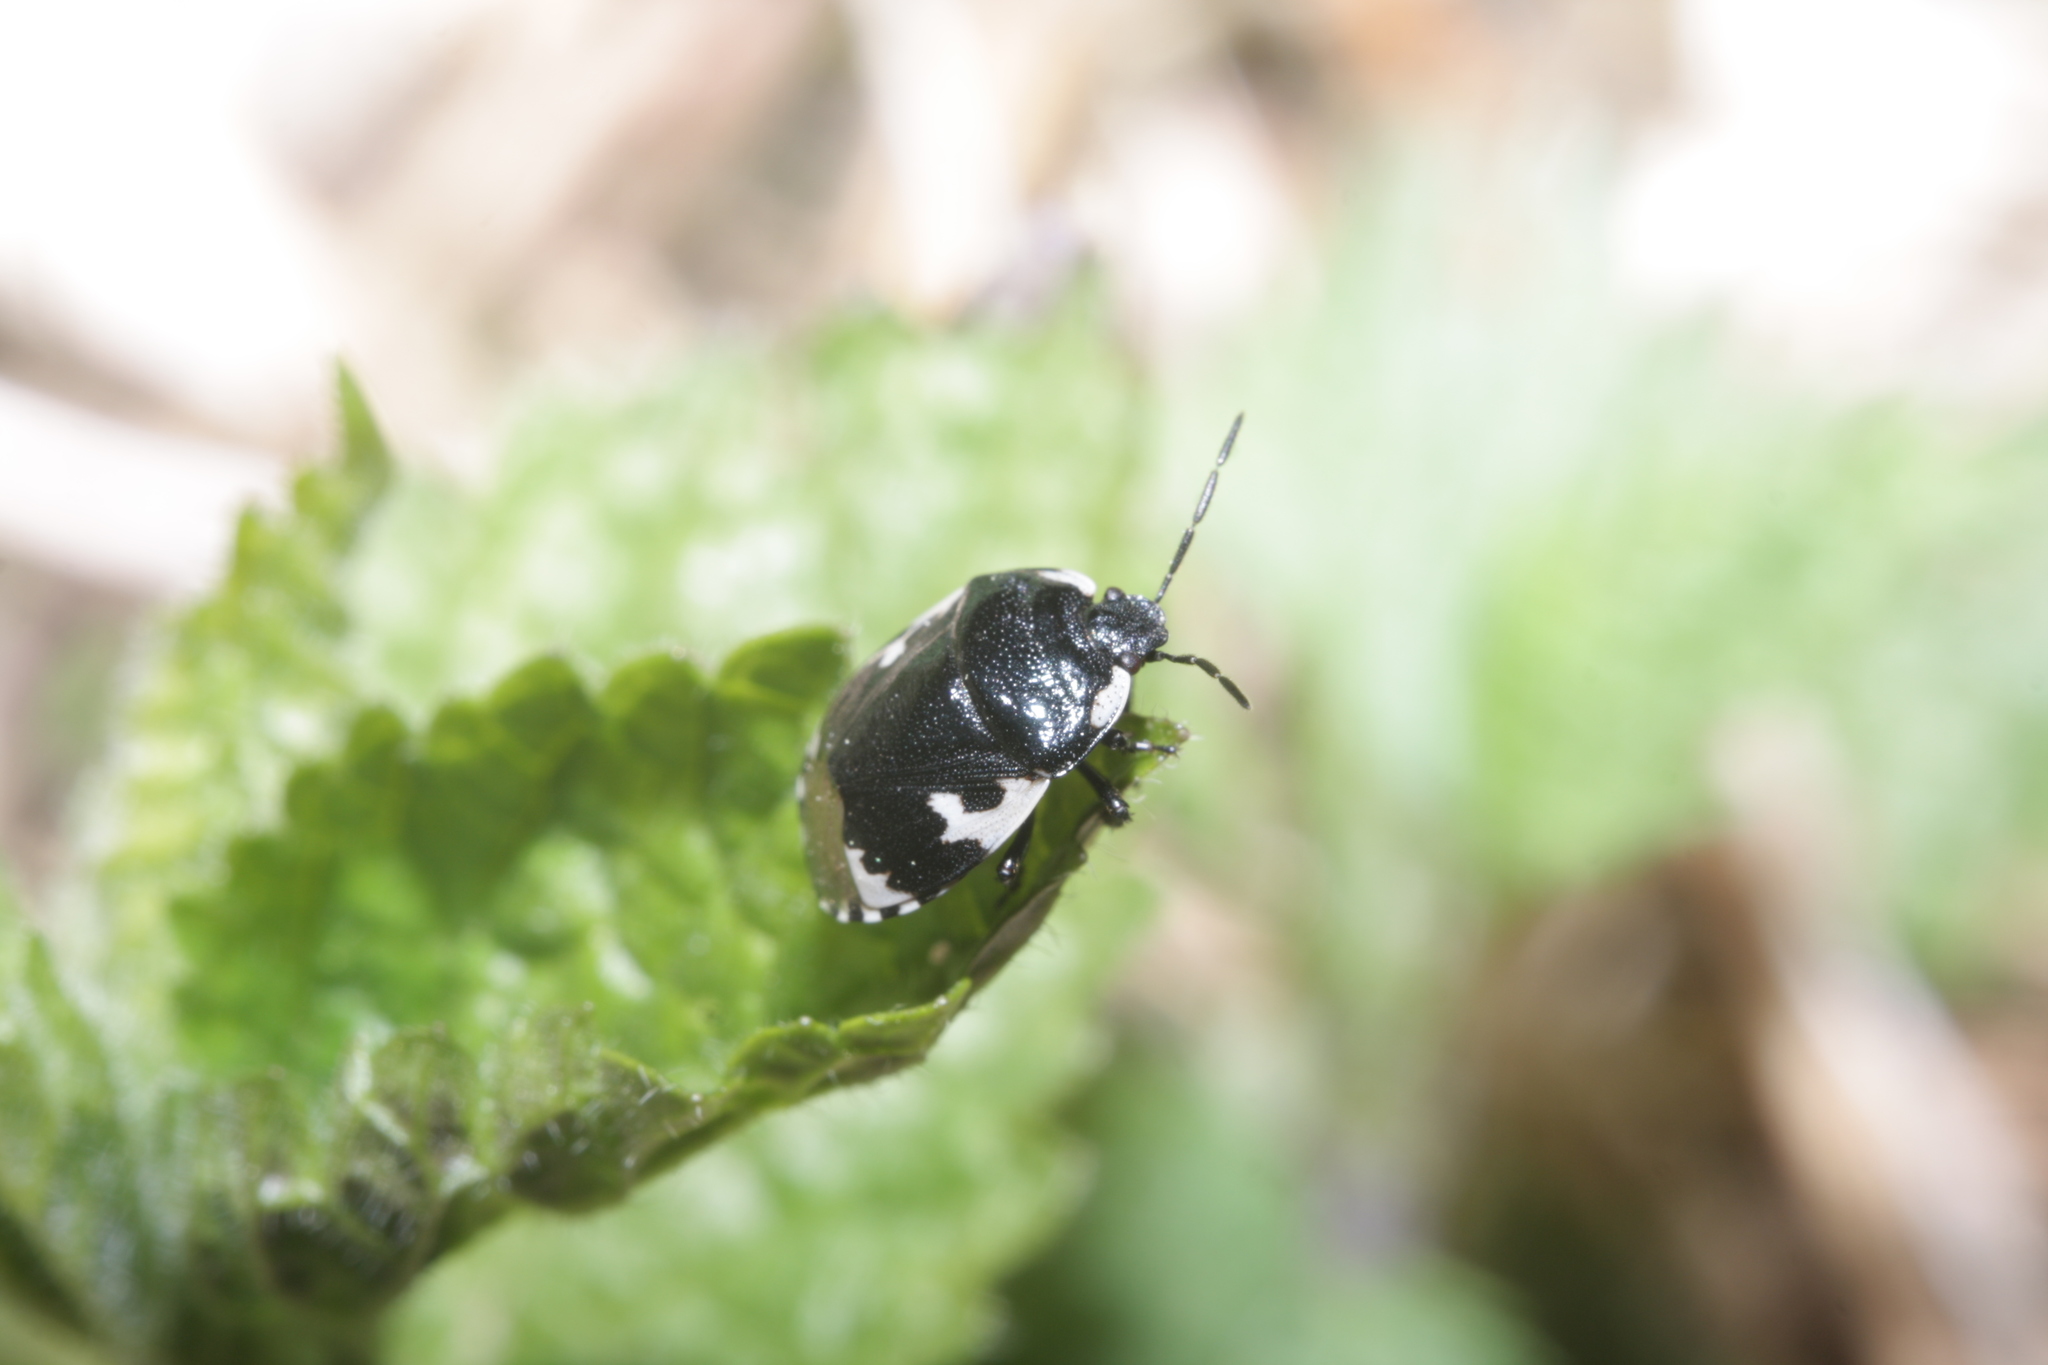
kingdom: Animalia
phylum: Arthropoda
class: Insecta
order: Hemiptera
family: Cydnidae
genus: Tritomegas
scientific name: Tritomegas bicolor
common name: Pied shieldbug
